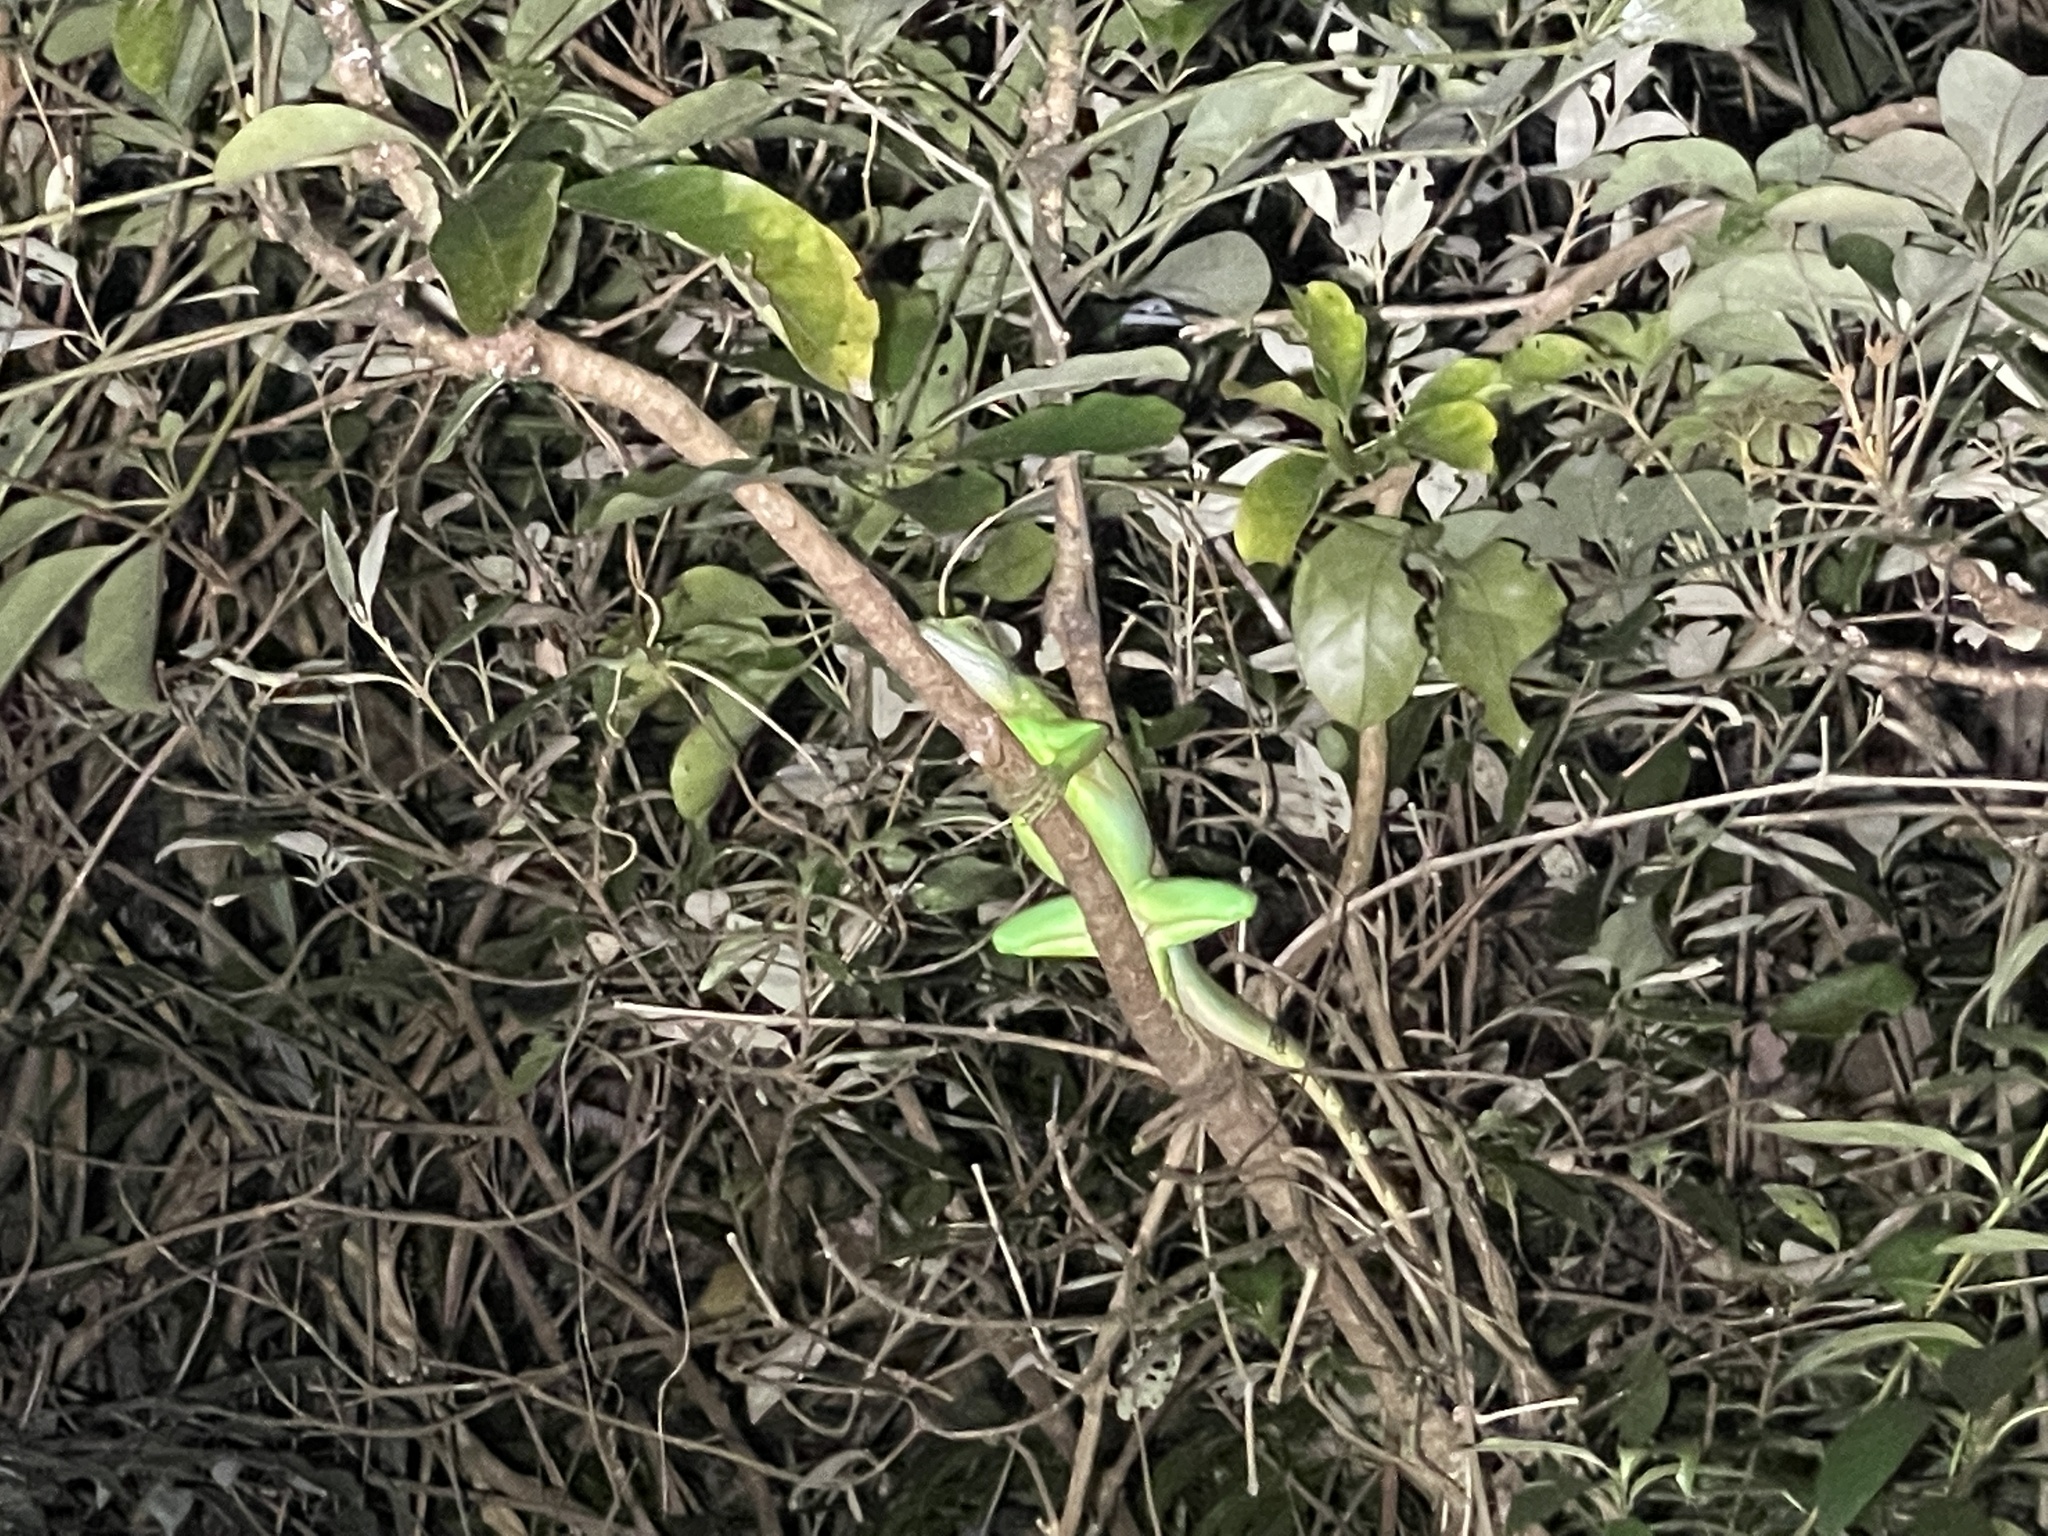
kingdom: Animalia
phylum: Chordata
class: Squamata
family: Agamidae
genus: Physignathus
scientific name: Physignathus cocincinus
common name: Asian water dragon
